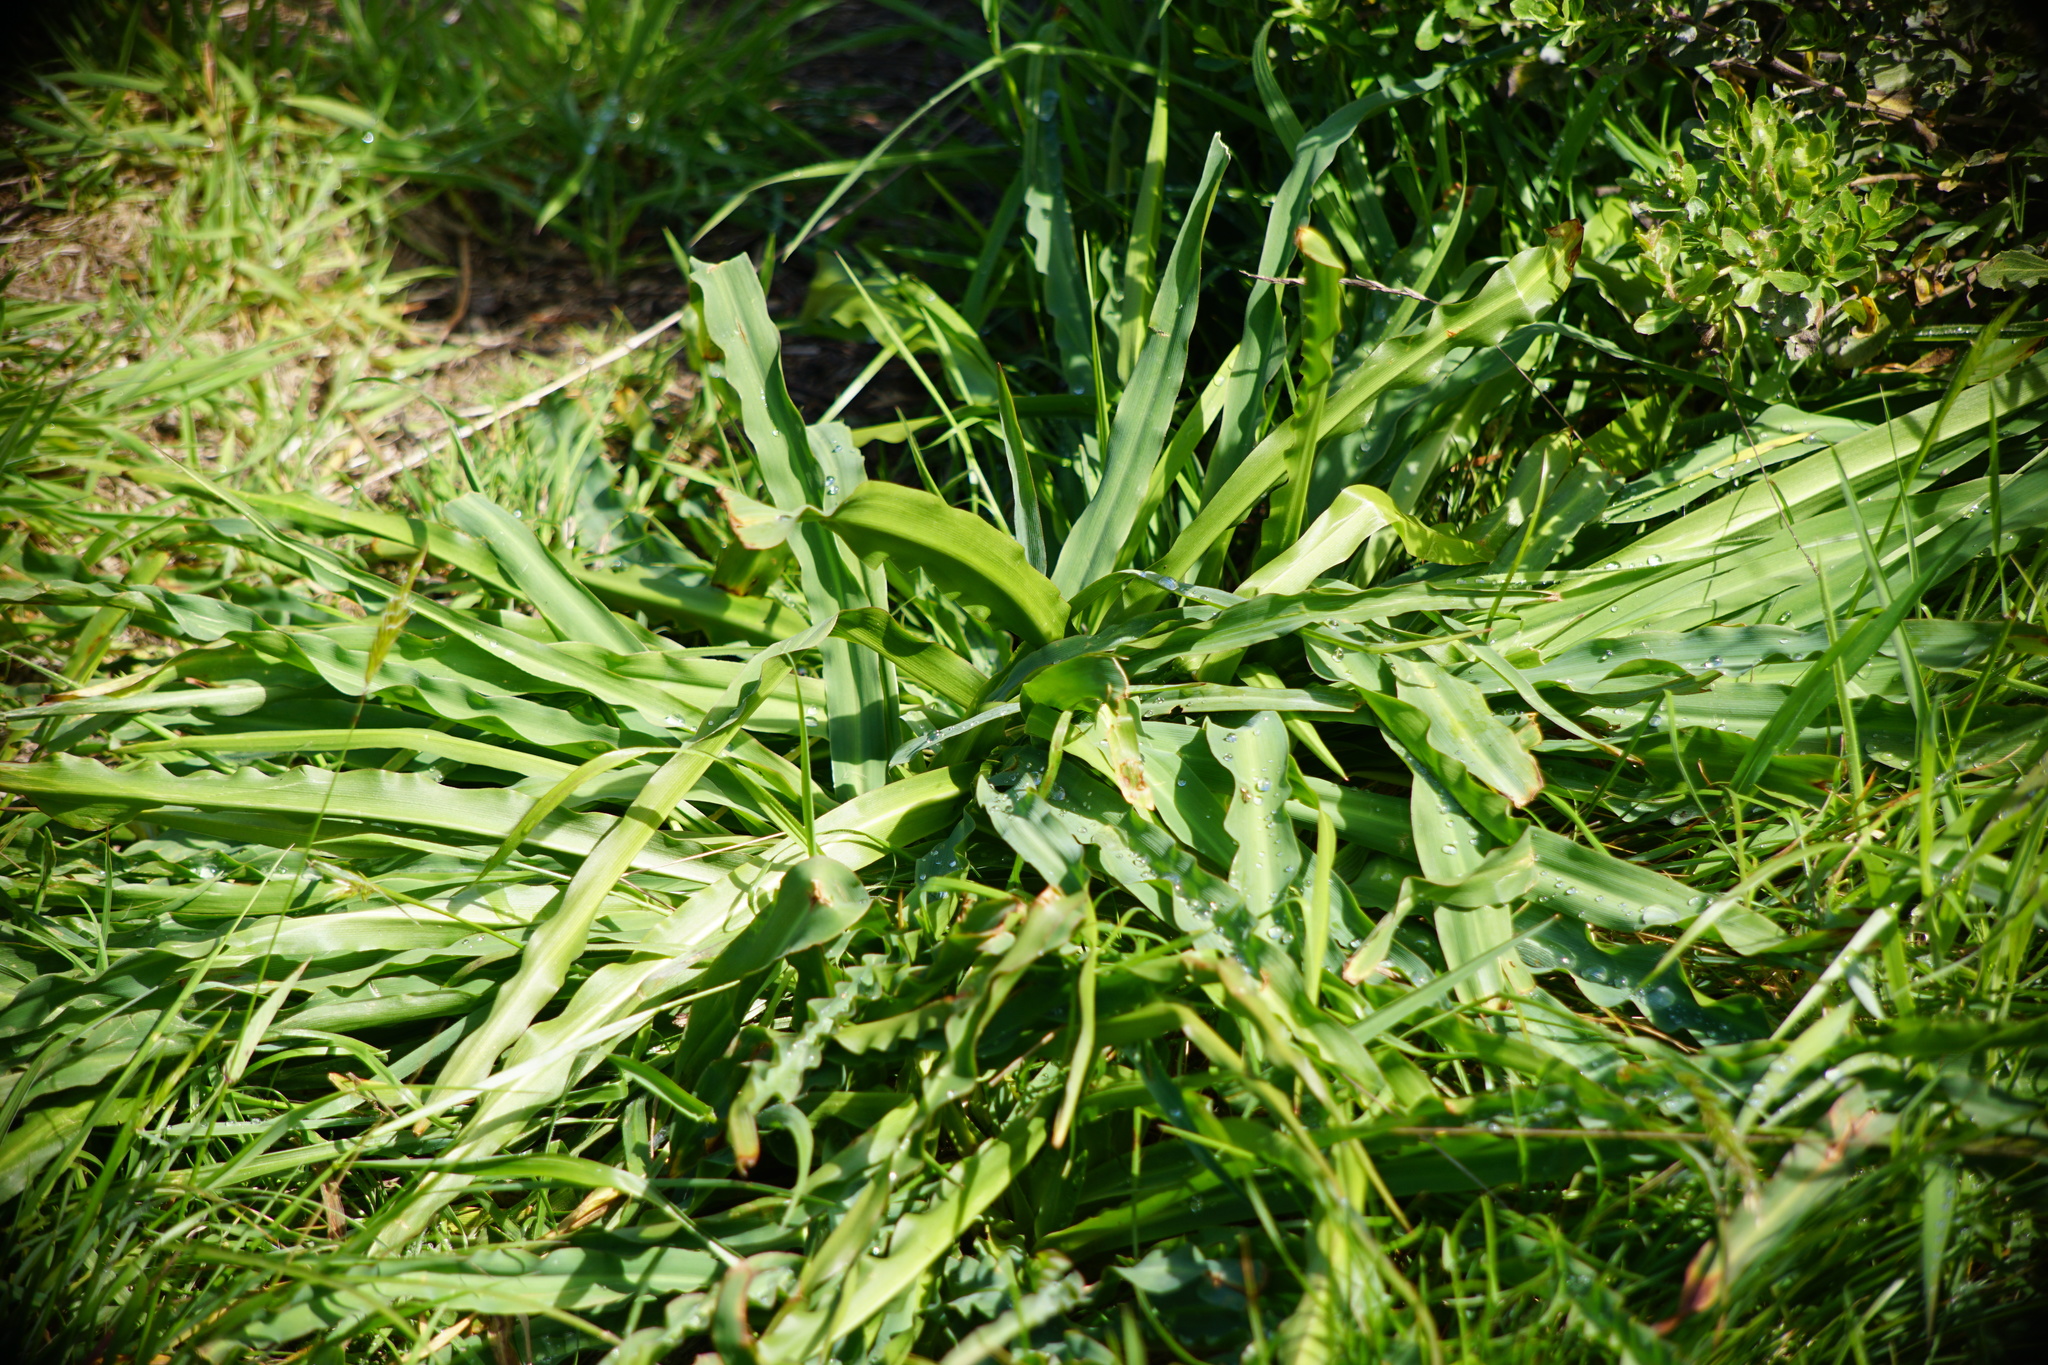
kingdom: Plantae
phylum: Tracheophyta
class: Liliopsida
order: Asparagales
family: Asparagaceae
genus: Chlorogalum
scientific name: Chlorogalum pomeridianum
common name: Amole
